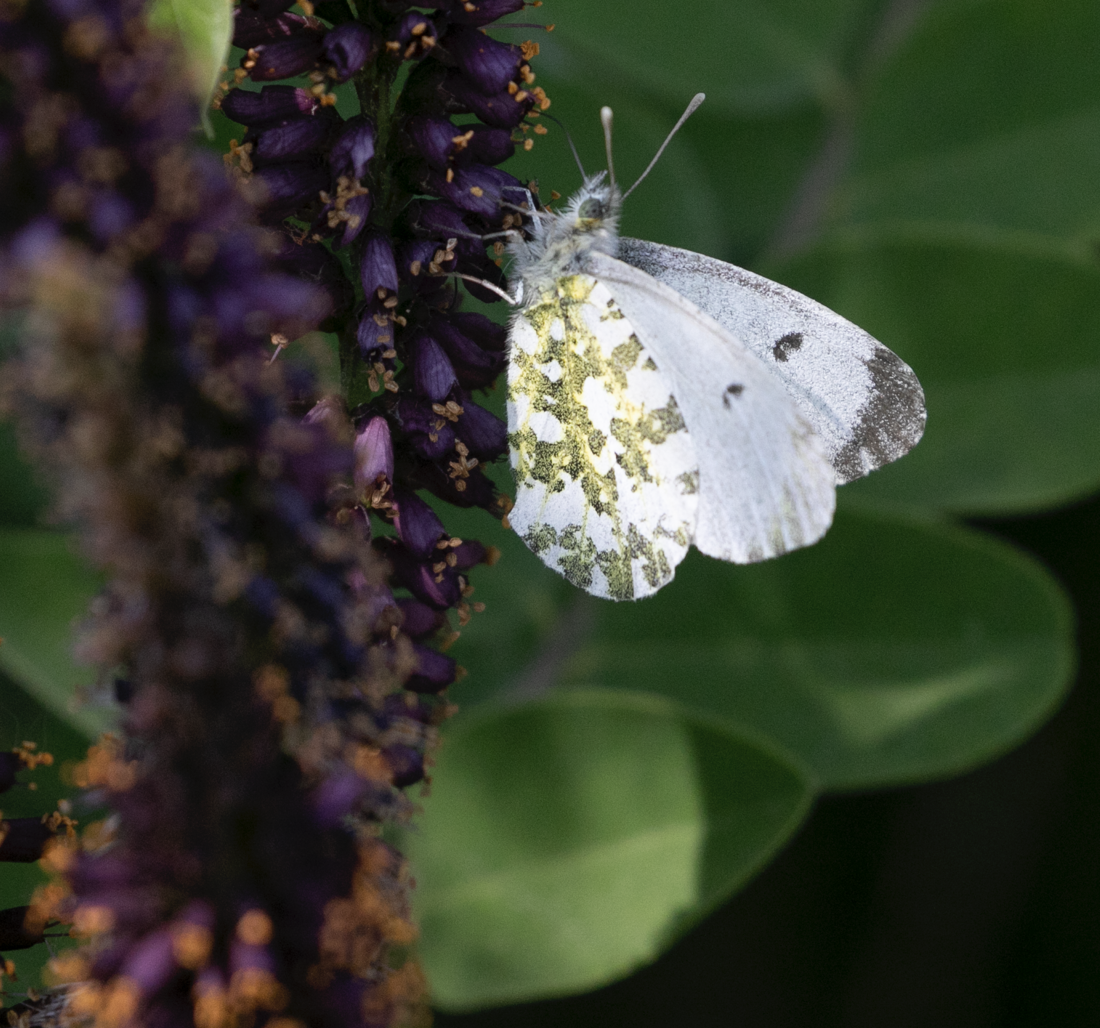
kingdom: Animalia
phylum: Arthropoda
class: Insecta
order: Lepidoptera
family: Pieridae
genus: Anthocharis
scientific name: Anthocharis cardamines
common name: Orange-tip
